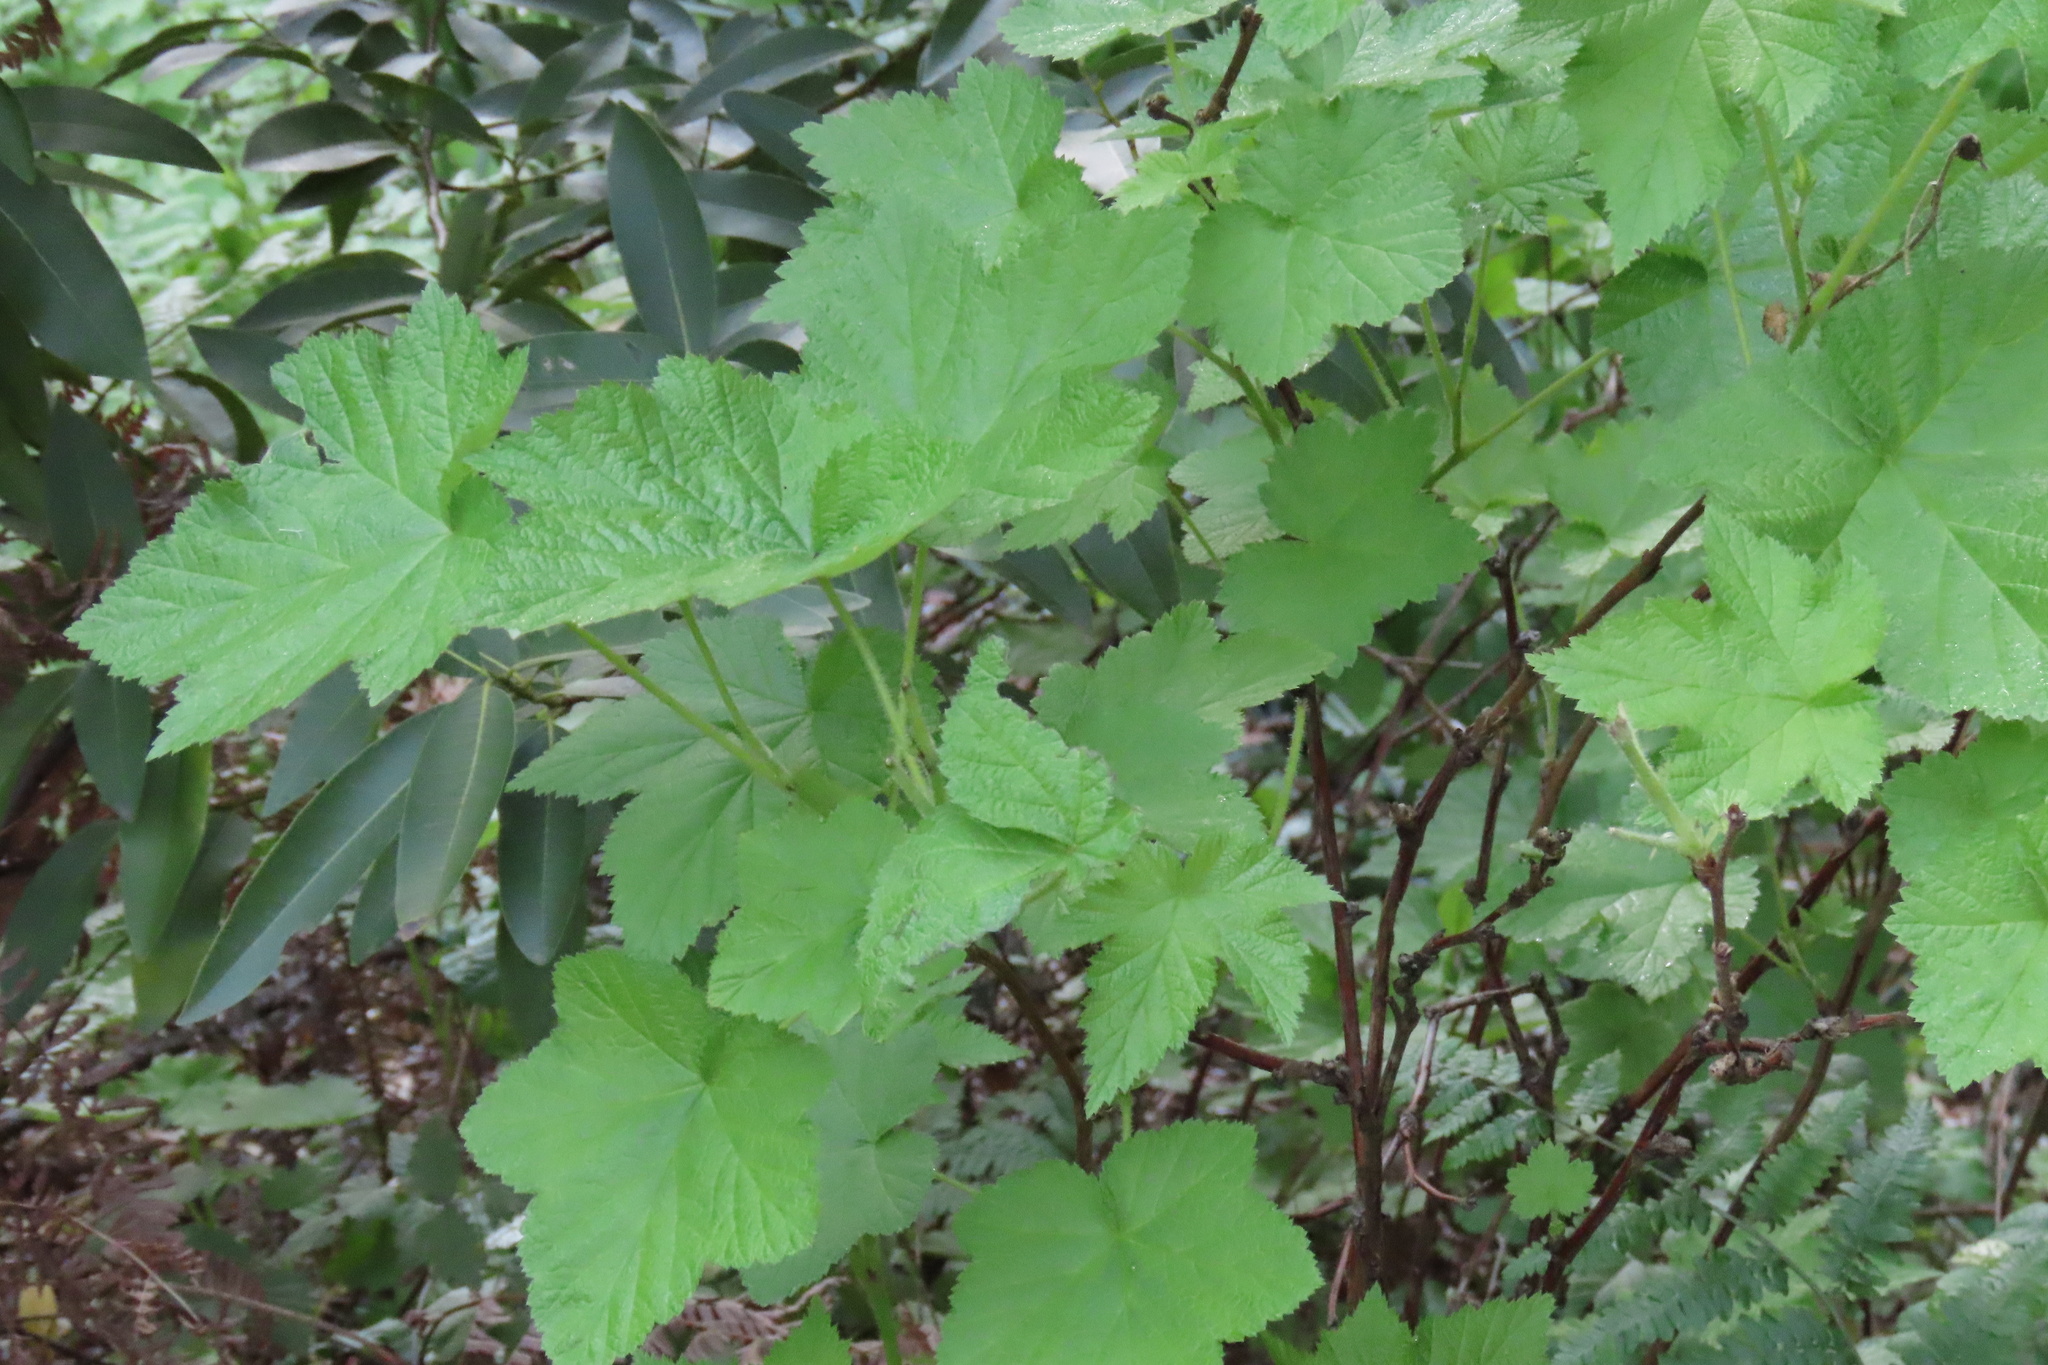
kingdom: Plantae
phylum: Tracheophyta
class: Magnoliopsida
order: Rosales
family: Rosaceae
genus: Rubus
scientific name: Rubus parviflorus
